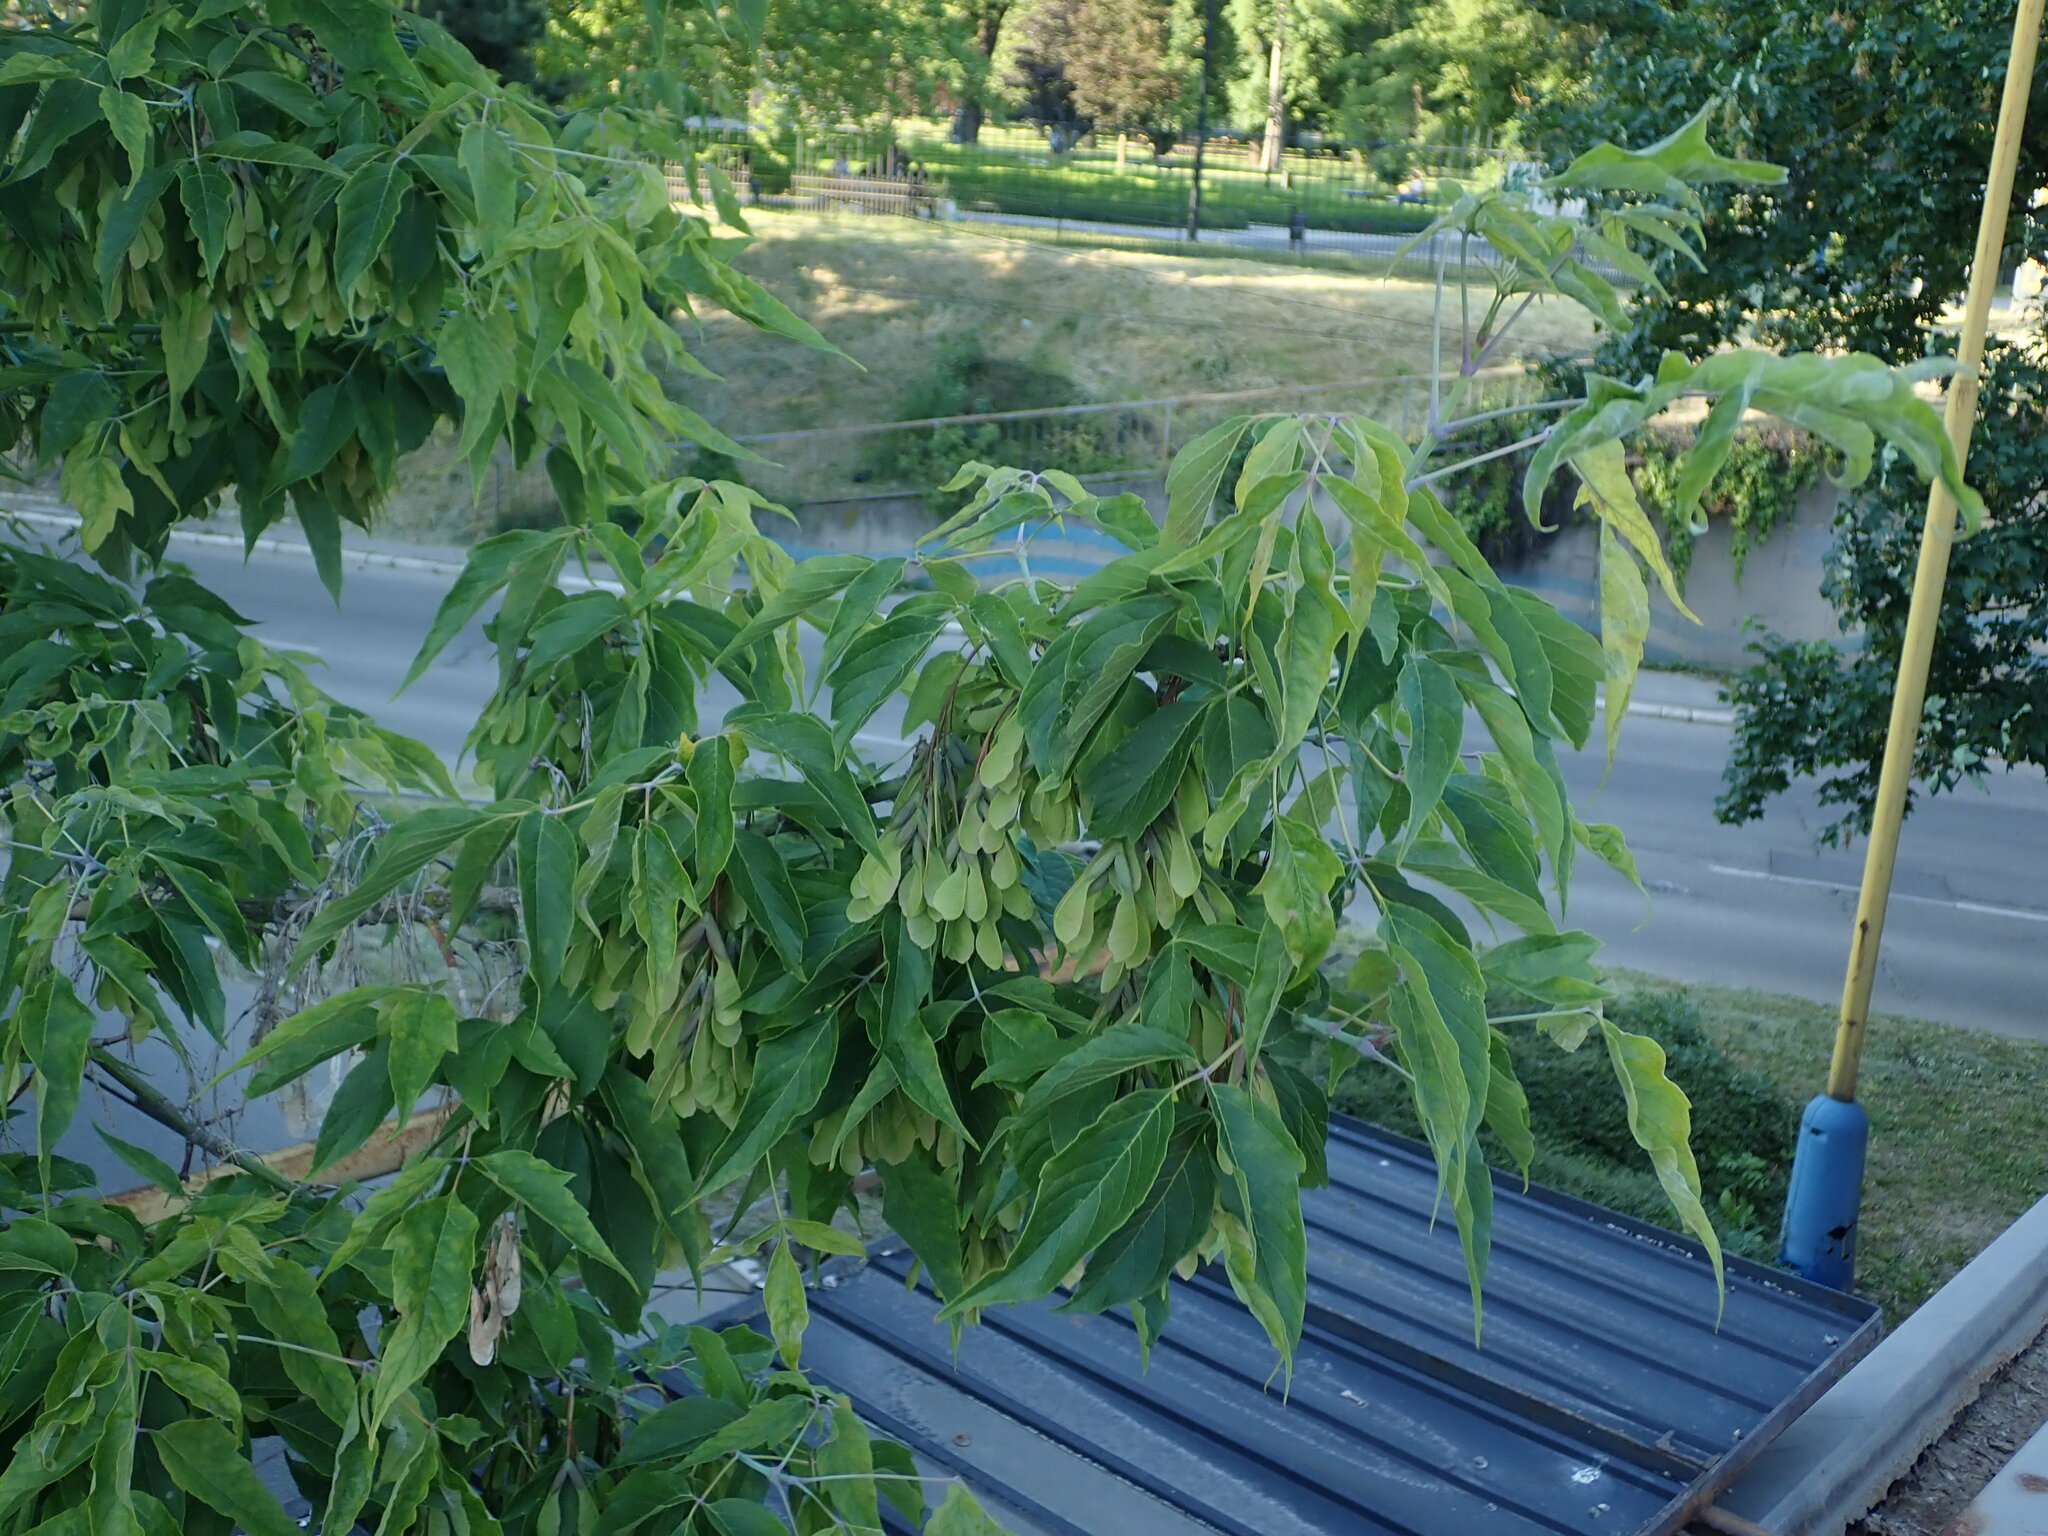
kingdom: Plantae
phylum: Tracheophyta
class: Magnoliopsida
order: Sapindales
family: Sapindaceae
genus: Acer
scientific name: Acer negundo
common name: Ashleaf maple
